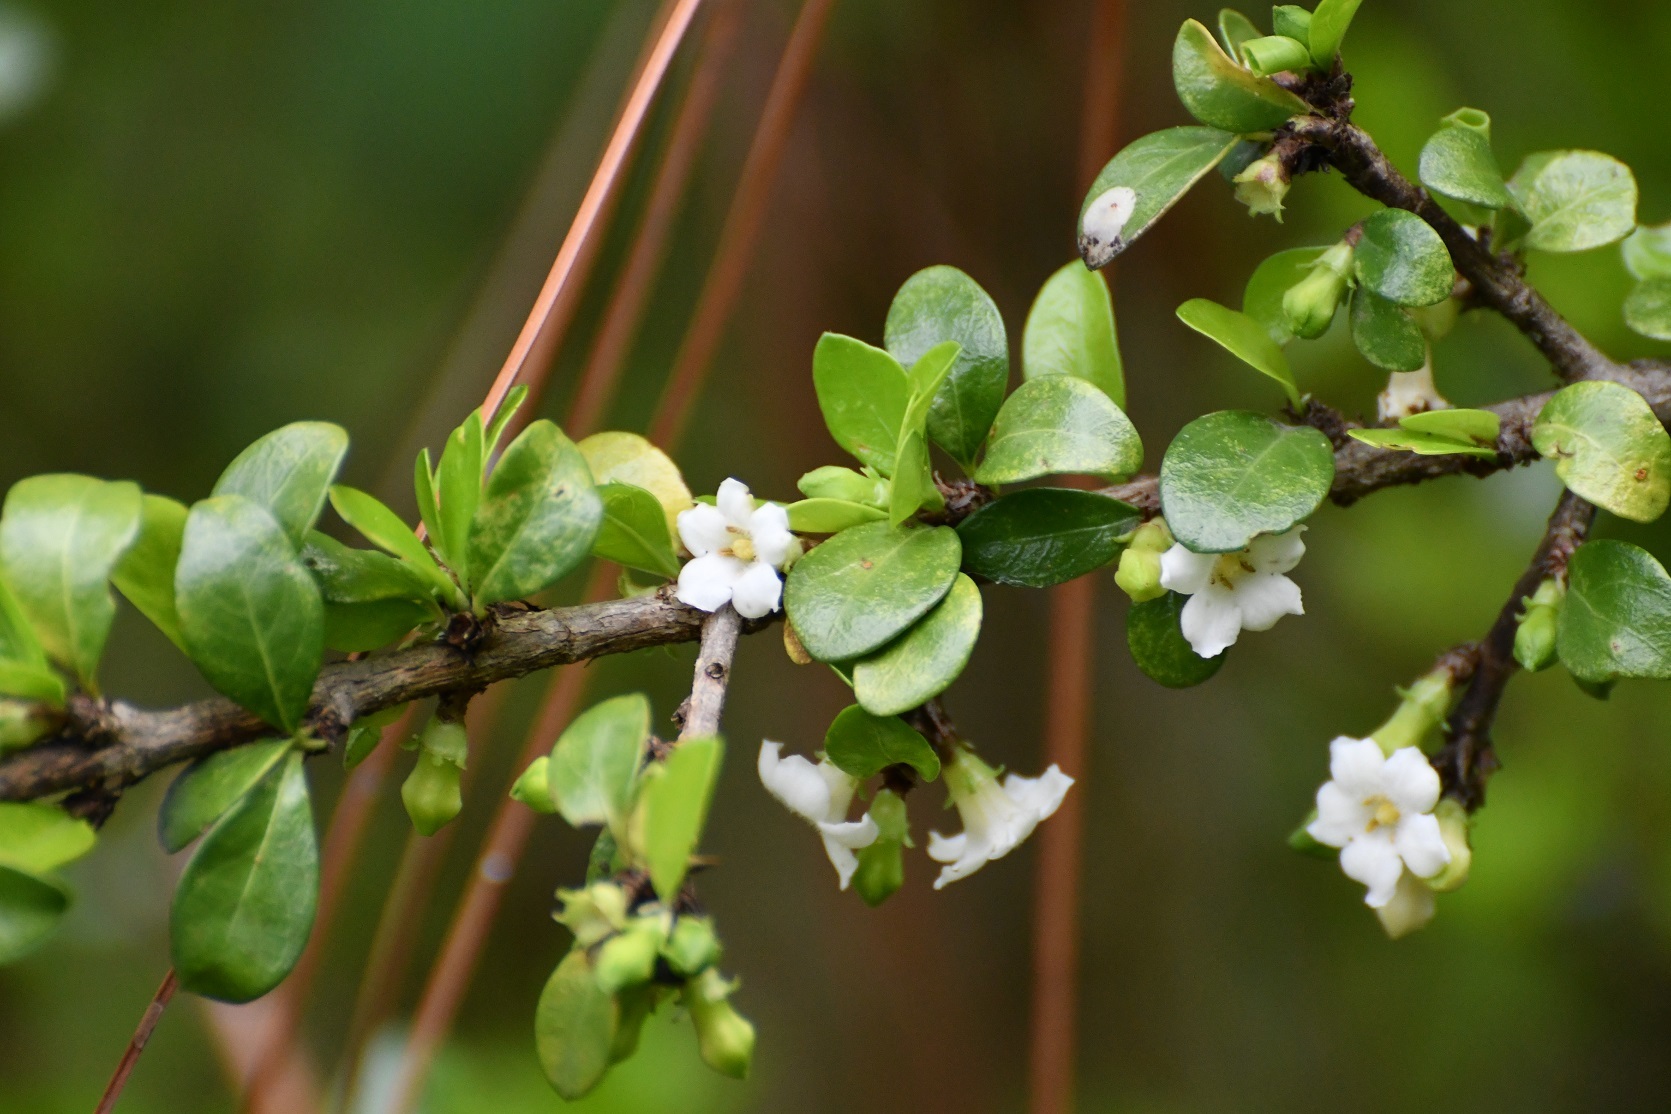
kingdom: Plantae
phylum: Tracheophyta
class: Magnoliopsida
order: Gentianales
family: Rubiaceae
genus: Randia
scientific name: Randia chiapensis
